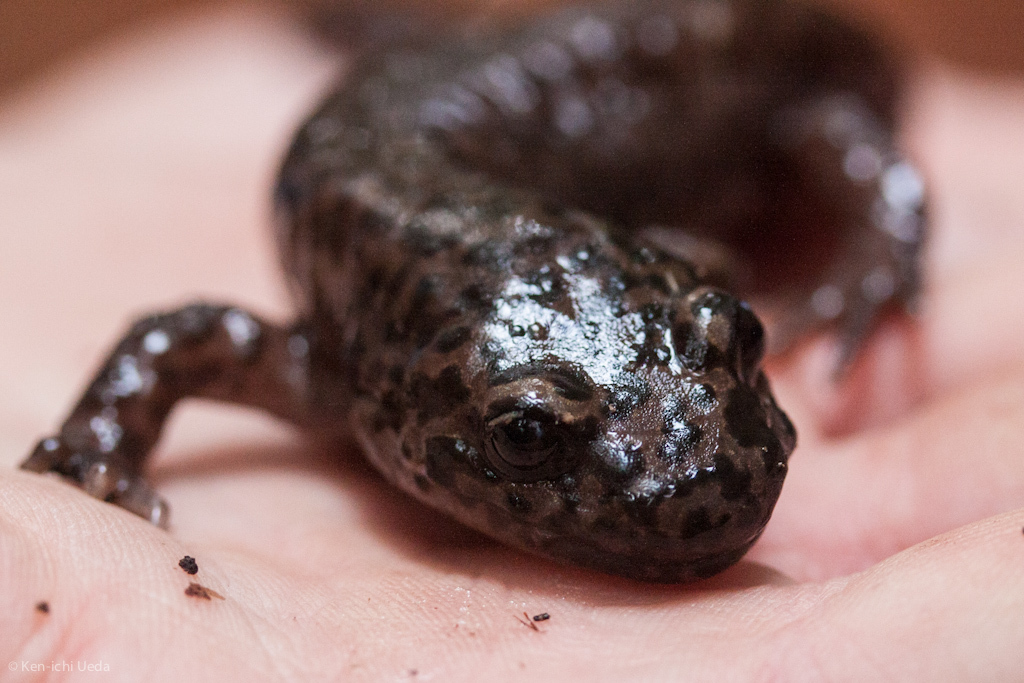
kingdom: Animalia
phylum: Chordata
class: Amphibia
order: Caudata
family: Ambystomatidae
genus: Dicamptodon
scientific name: Dicamptodon ensatus
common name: California giant salamander
